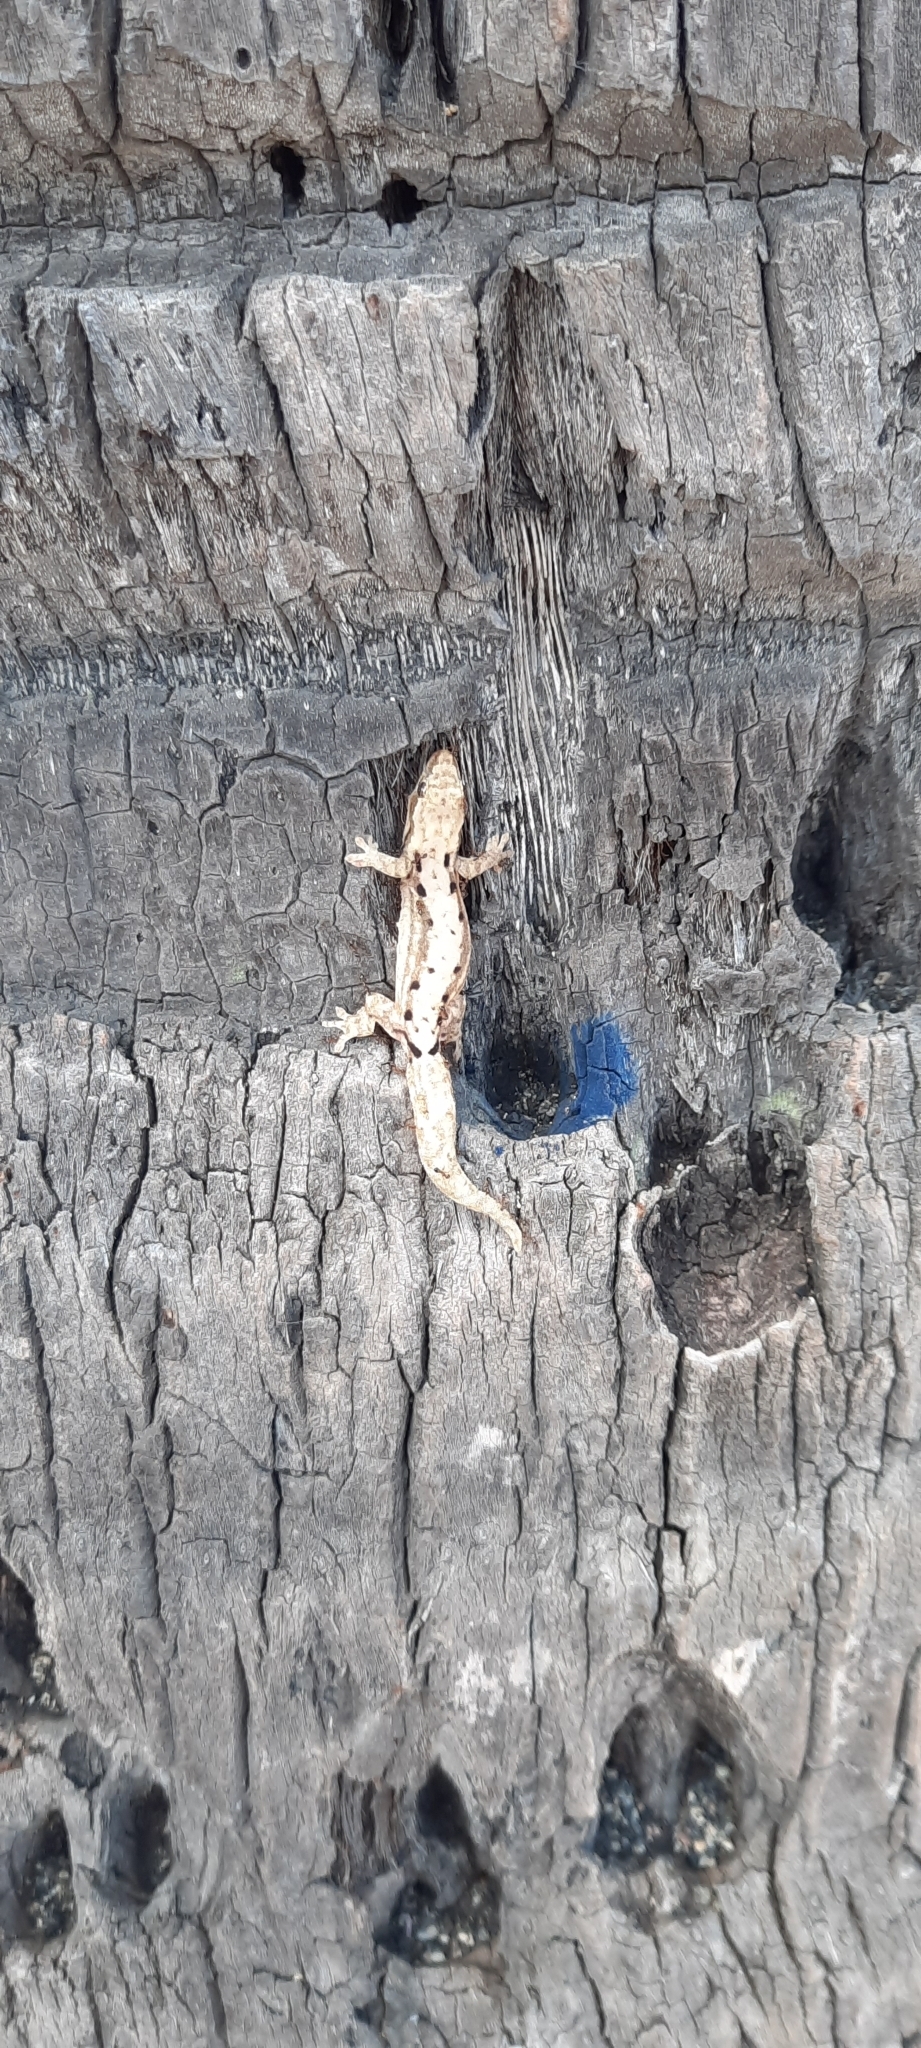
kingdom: Animalia
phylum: Chordata
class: Squamata
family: Gekkonidae
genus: Lepidodactylus
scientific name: Lepidodactylus lugubris
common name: Mourning gecko
